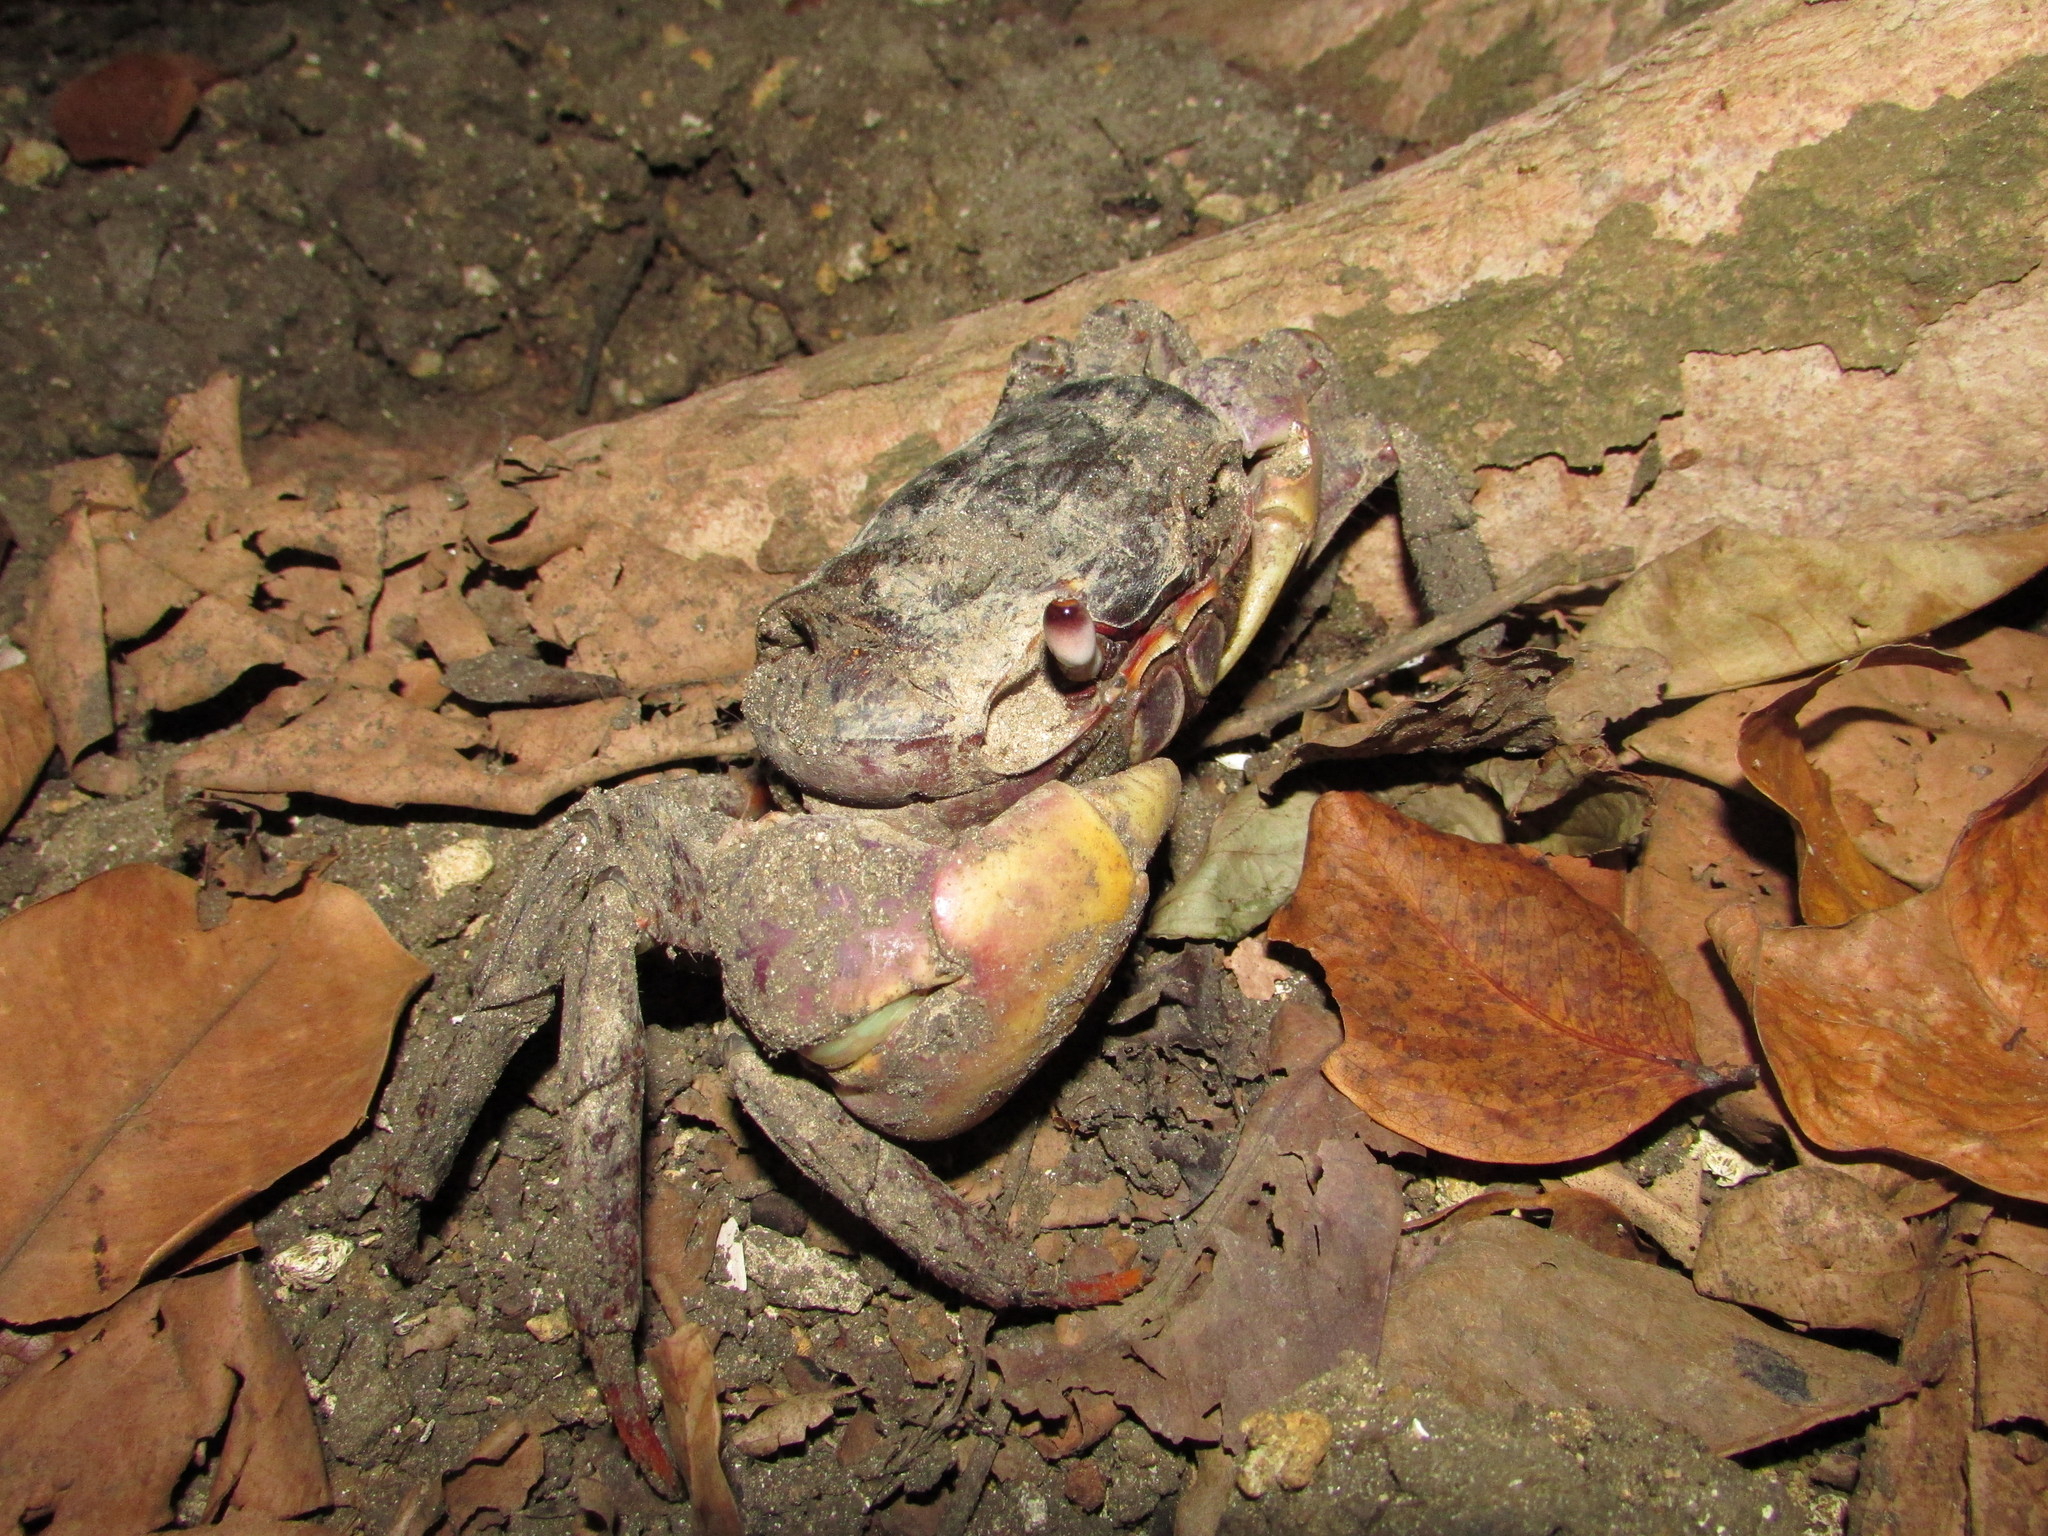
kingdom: Animalia
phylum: Arthropoda
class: Malacostraca
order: Decapoda
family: Gecarcinidae
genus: Cardisoma
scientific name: Cardisoma carnifex
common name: Brown land crab
